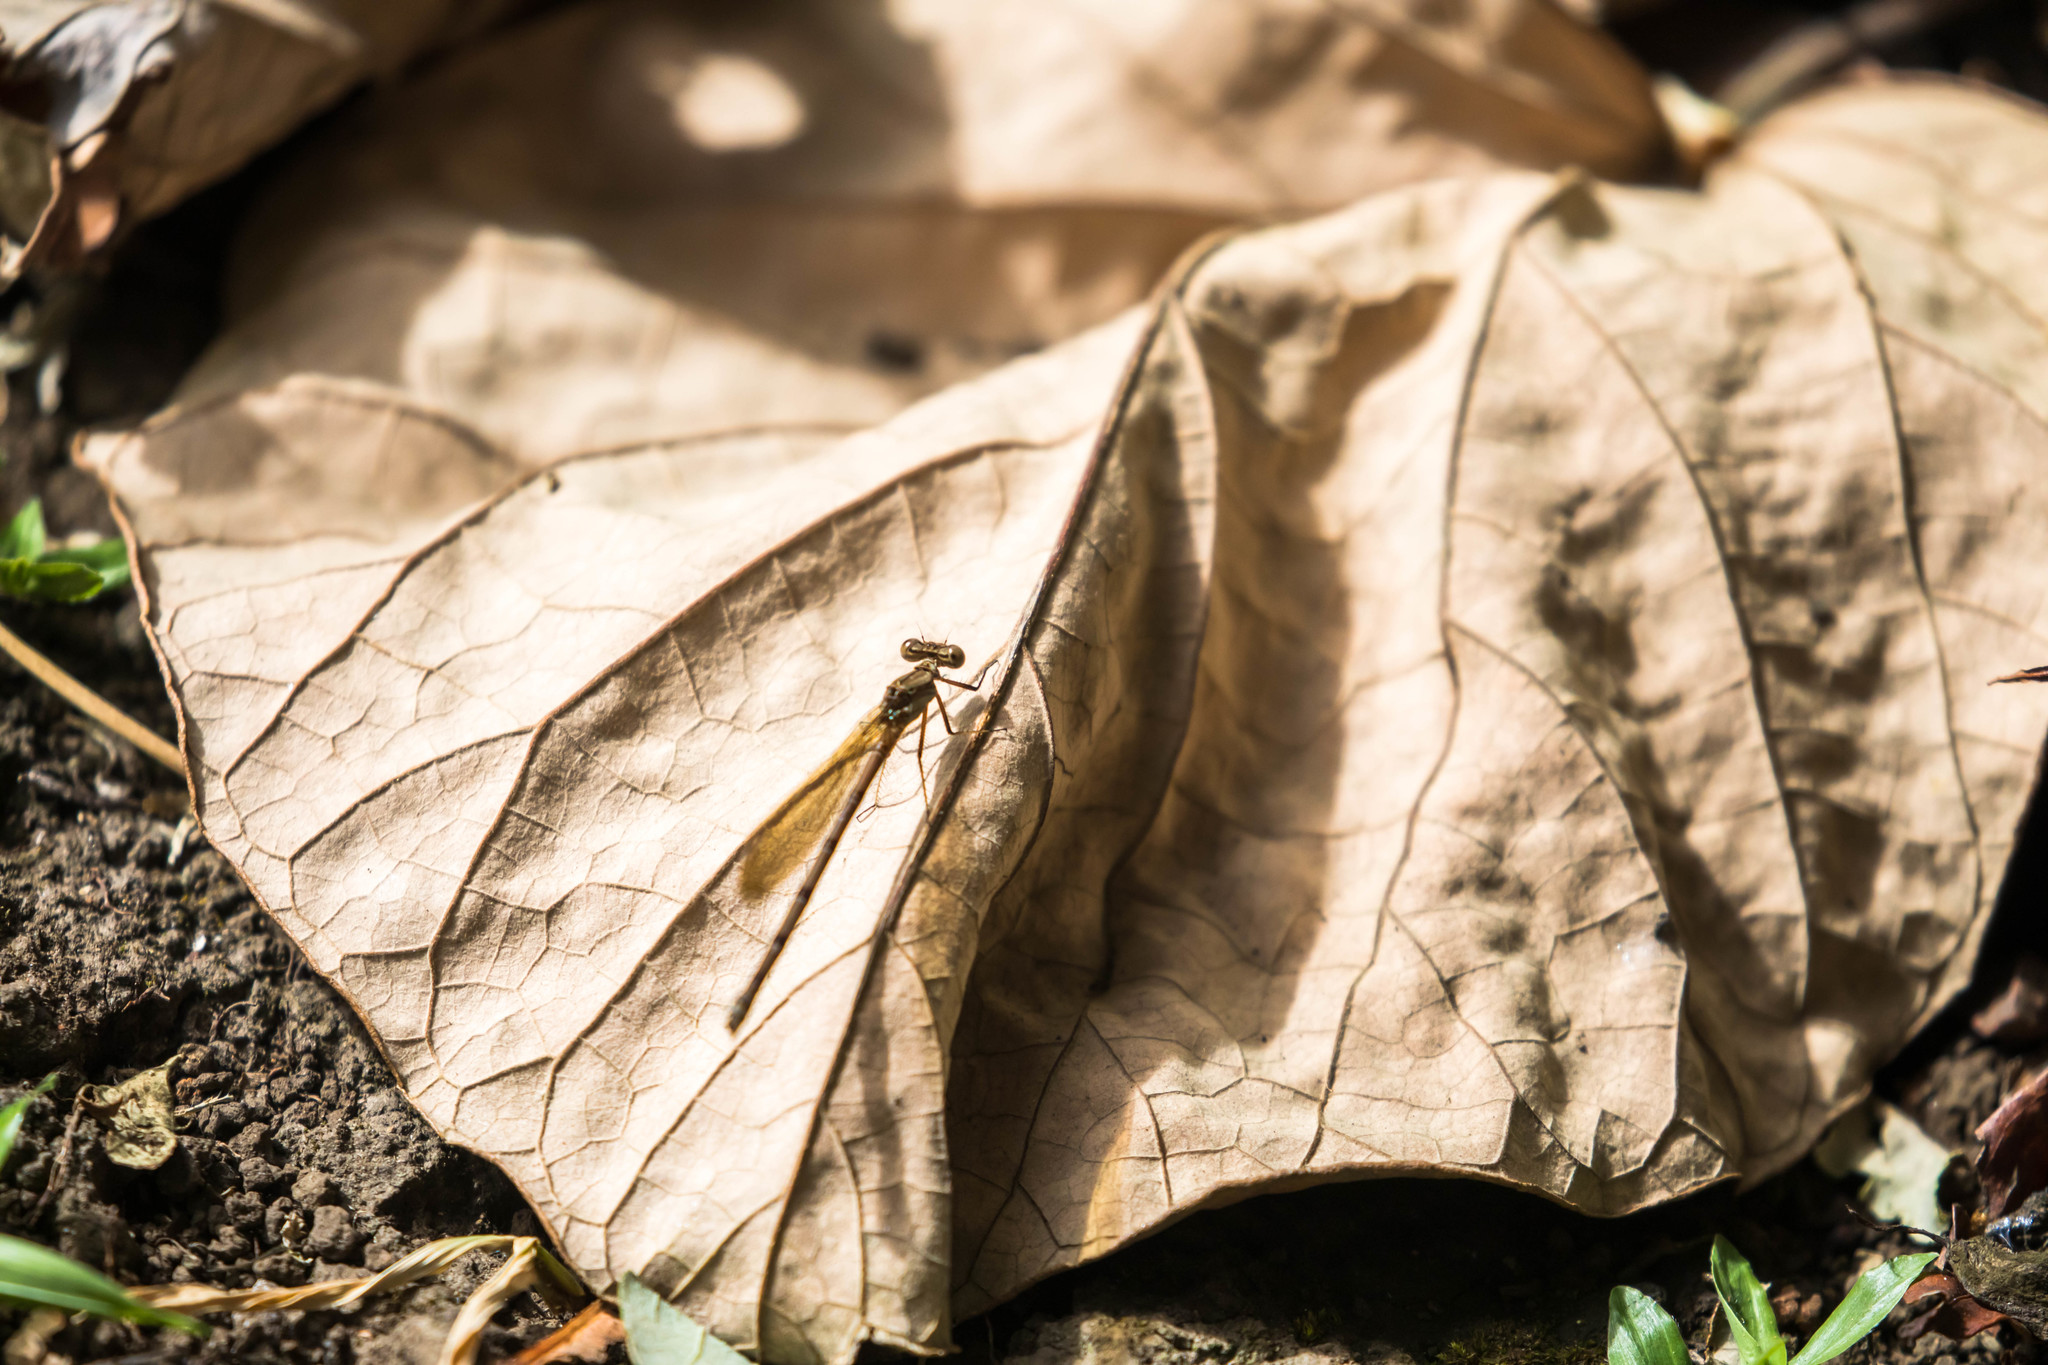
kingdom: Animalia
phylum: Arthropoda
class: Insecta
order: Odonata
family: Coenagrionidae
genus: Argia
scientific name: Argia anceps
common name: Cerulean dancer
